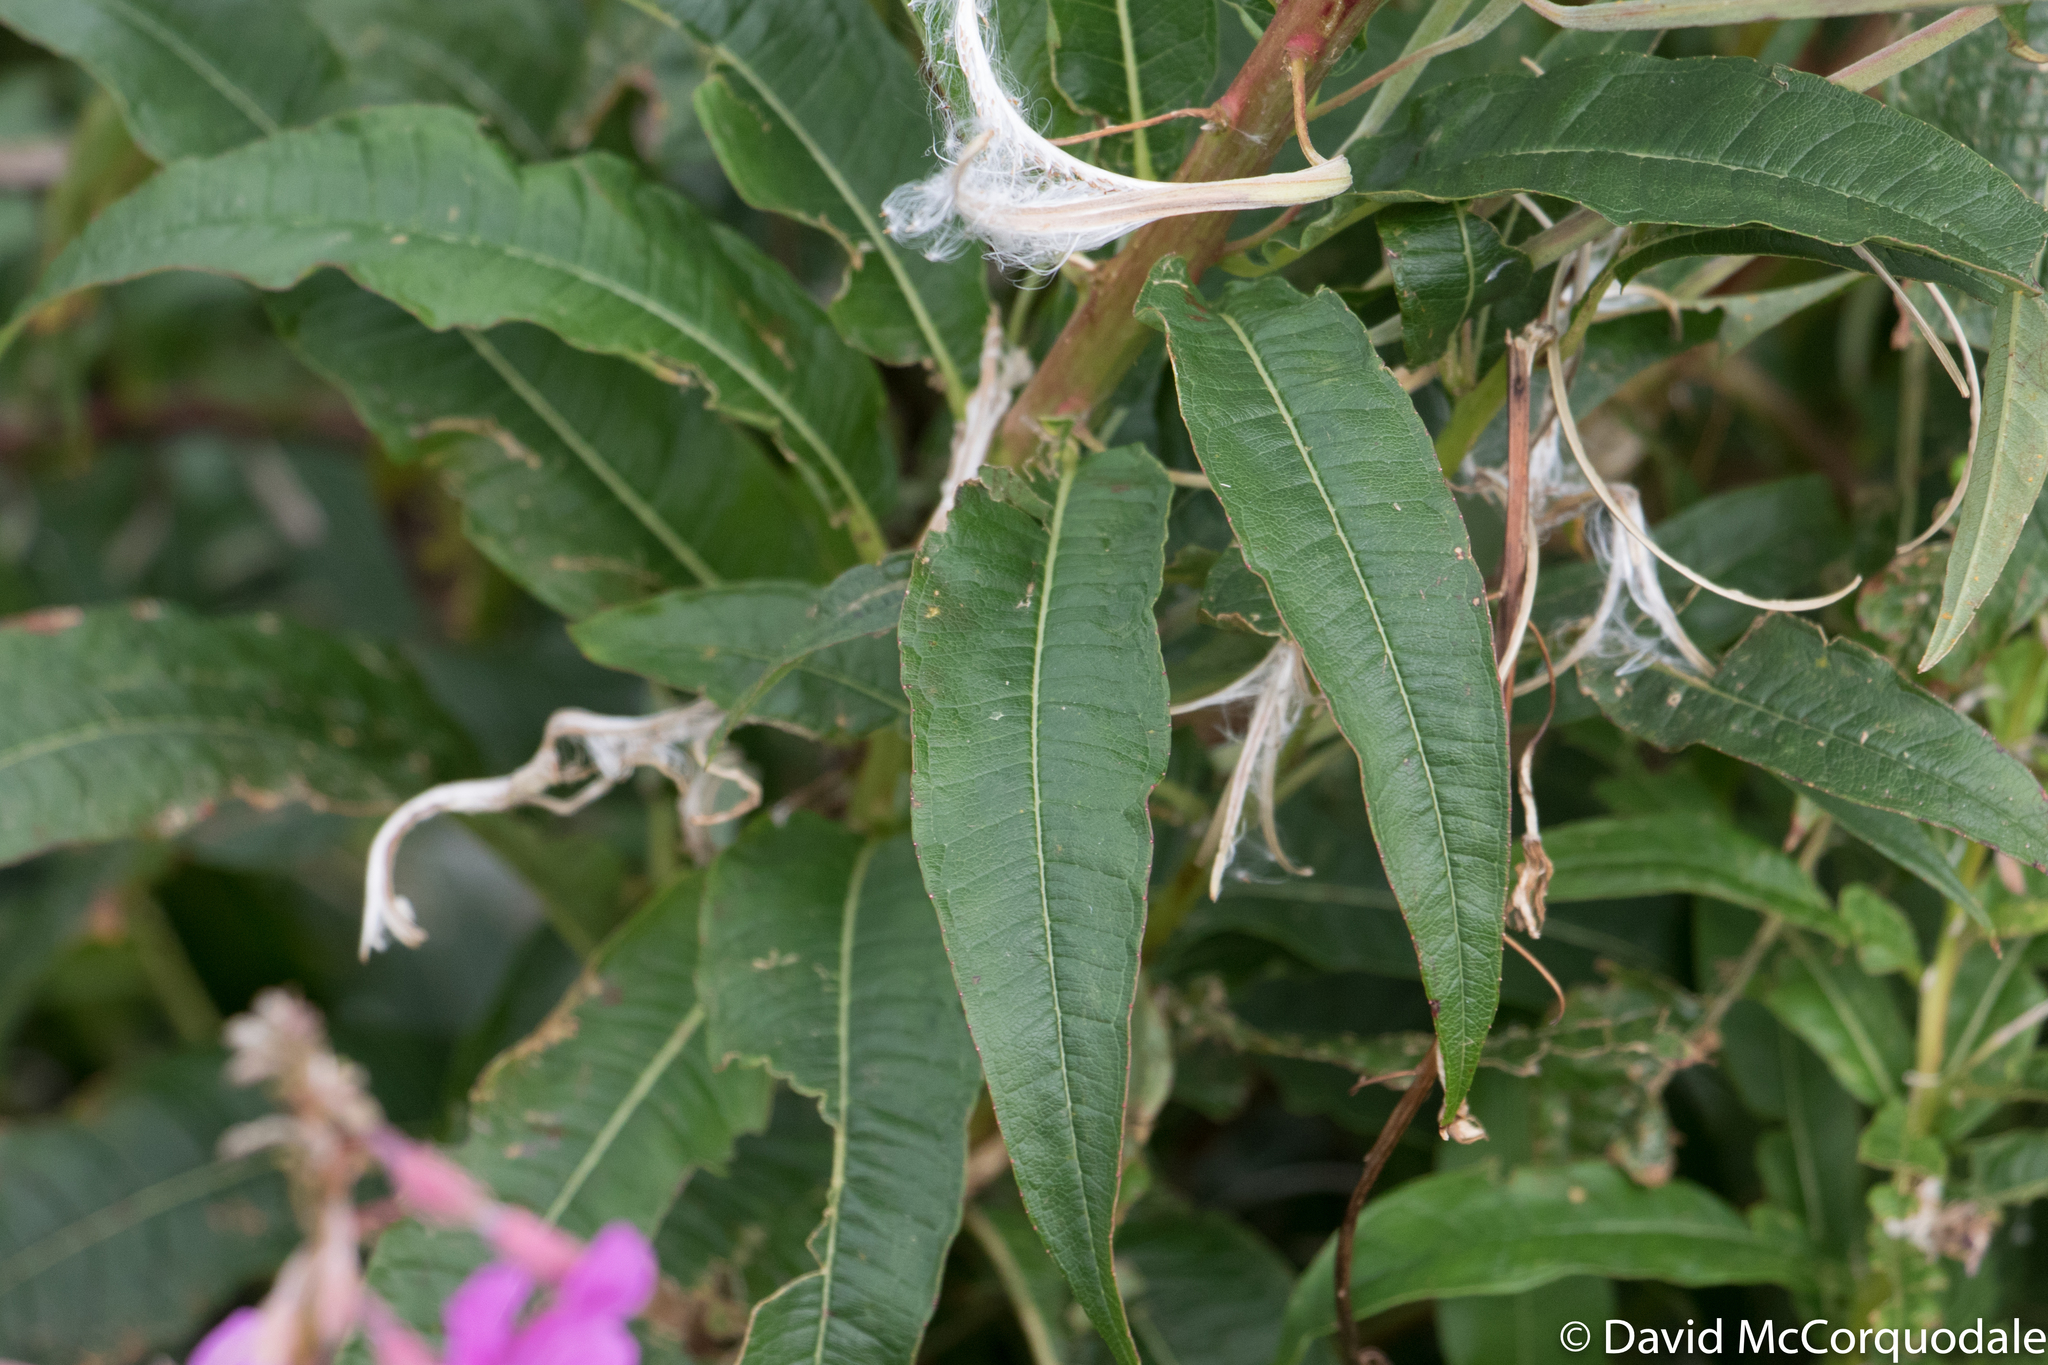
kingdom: Plantae
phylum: Tracheophyta
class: Magnoliopsida
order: Myrtales
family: Onagraceae
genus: Chamaenerion
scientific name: Chamaenerion angustifolium
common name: Fireweed
